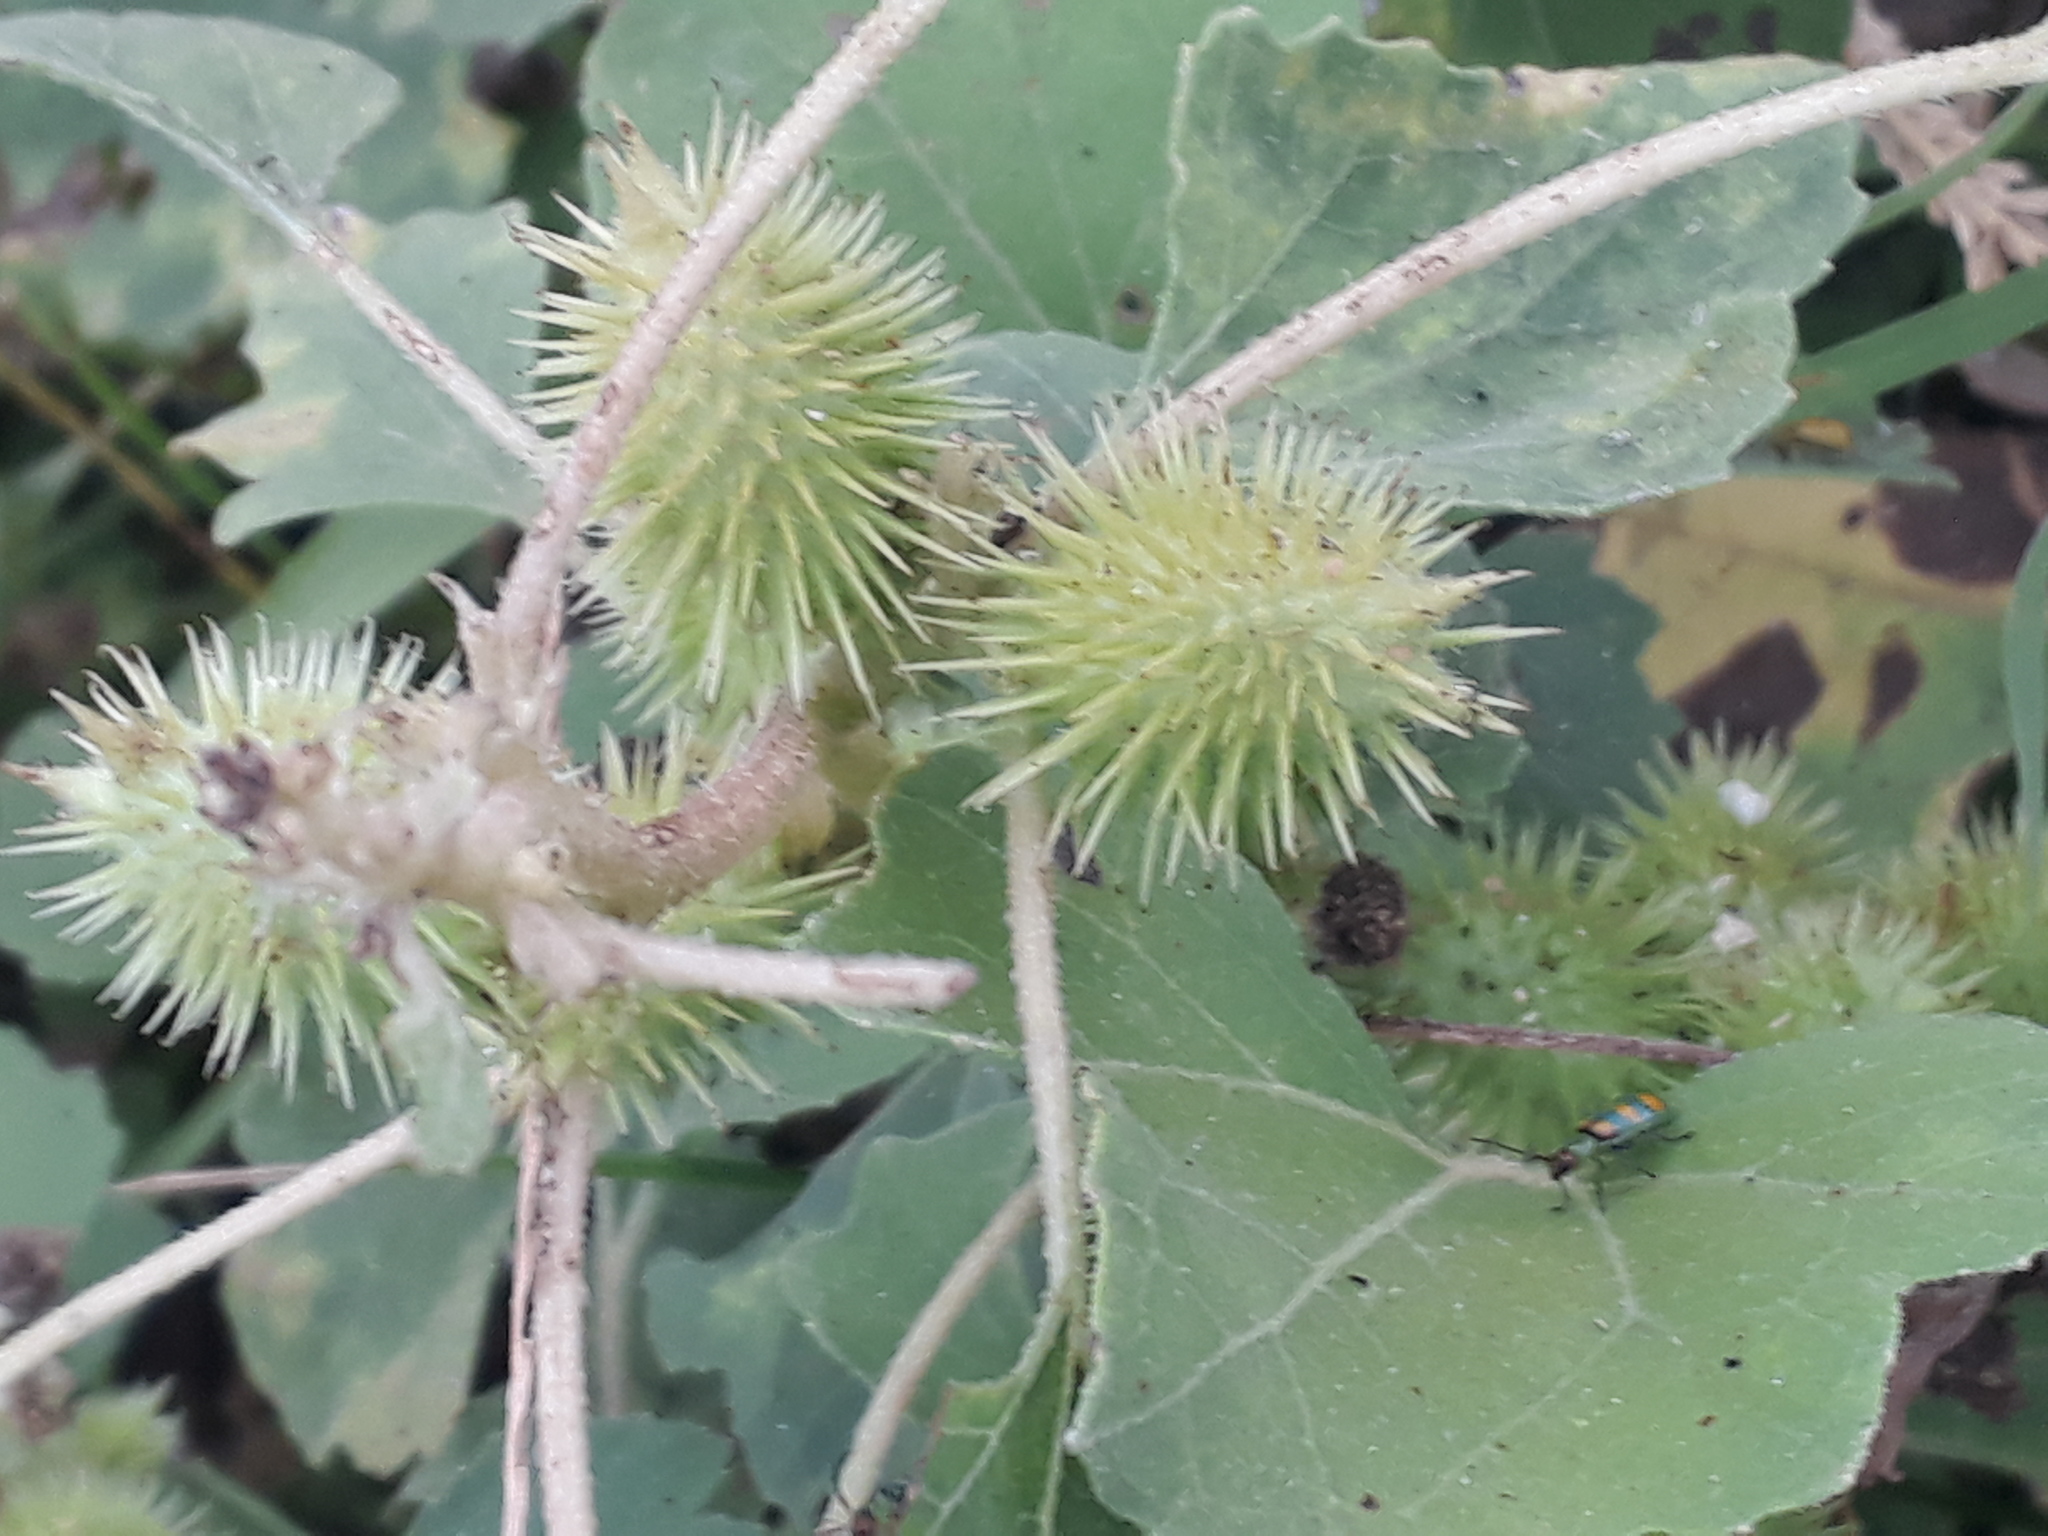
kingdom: Plantae
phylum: Tracheophyta
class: Magnoliopsida
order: Asterales
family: Asteraceae
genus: Xanthium
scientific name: Xanthium strumarium
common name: Rough cocklebur
